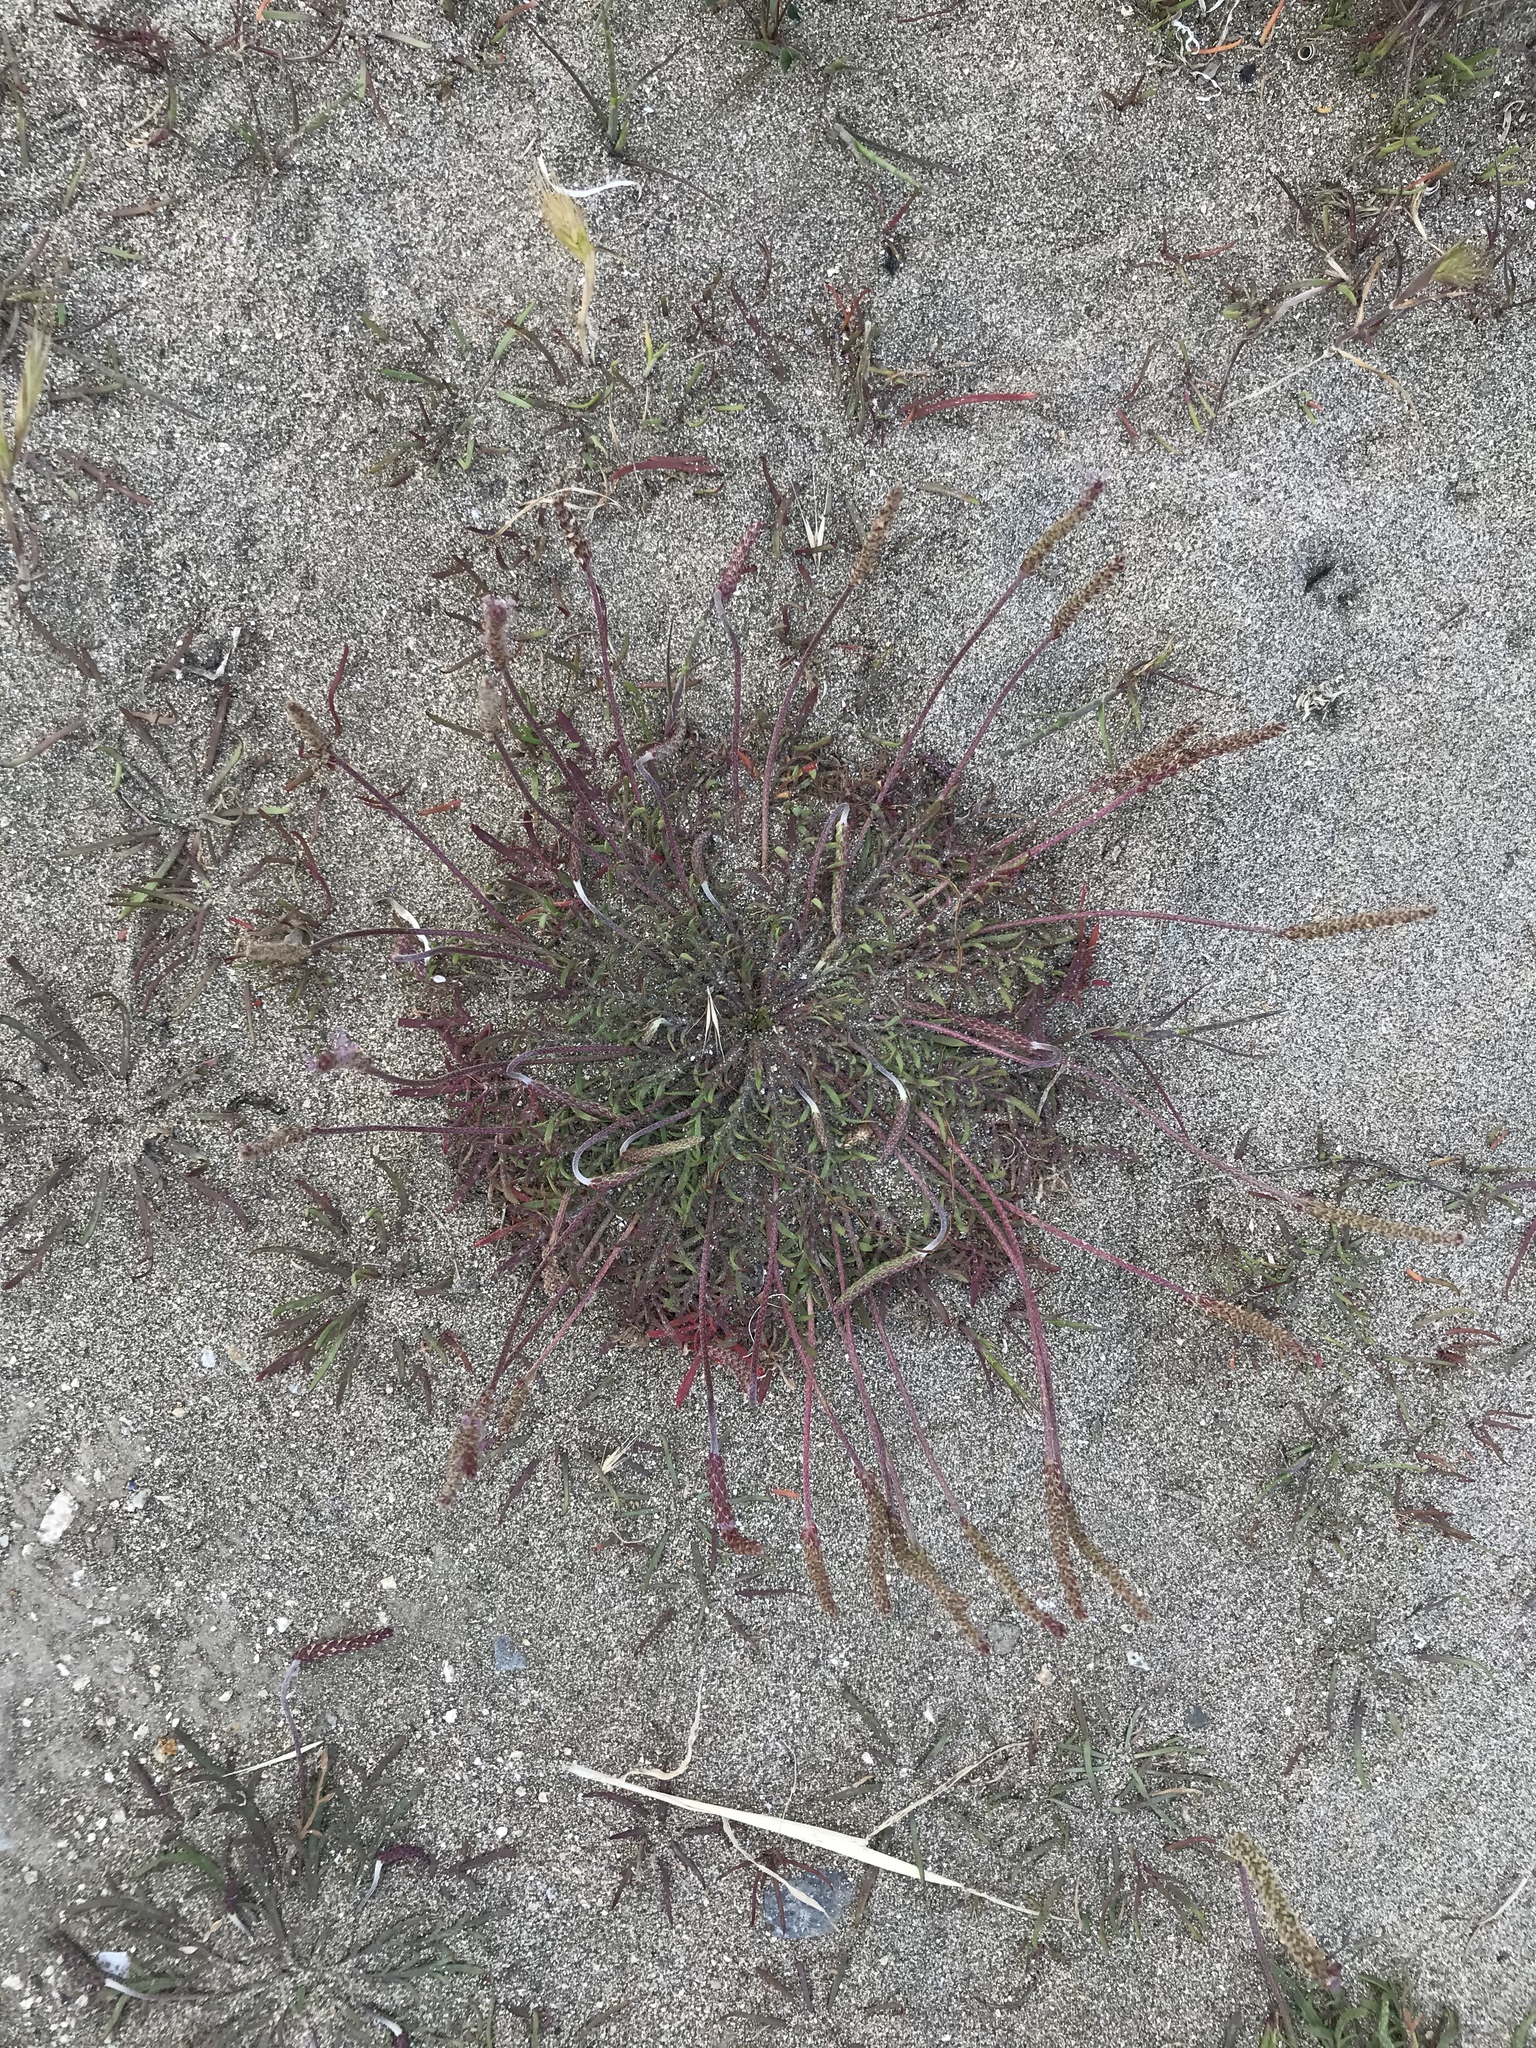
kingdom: Plantae
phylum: Tracheophyta
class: Magnoliopsida
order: Lamiales
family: Plantaginaceae
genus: Plantago
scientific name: Plantago coronopus
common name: Buck's-horn plantain
